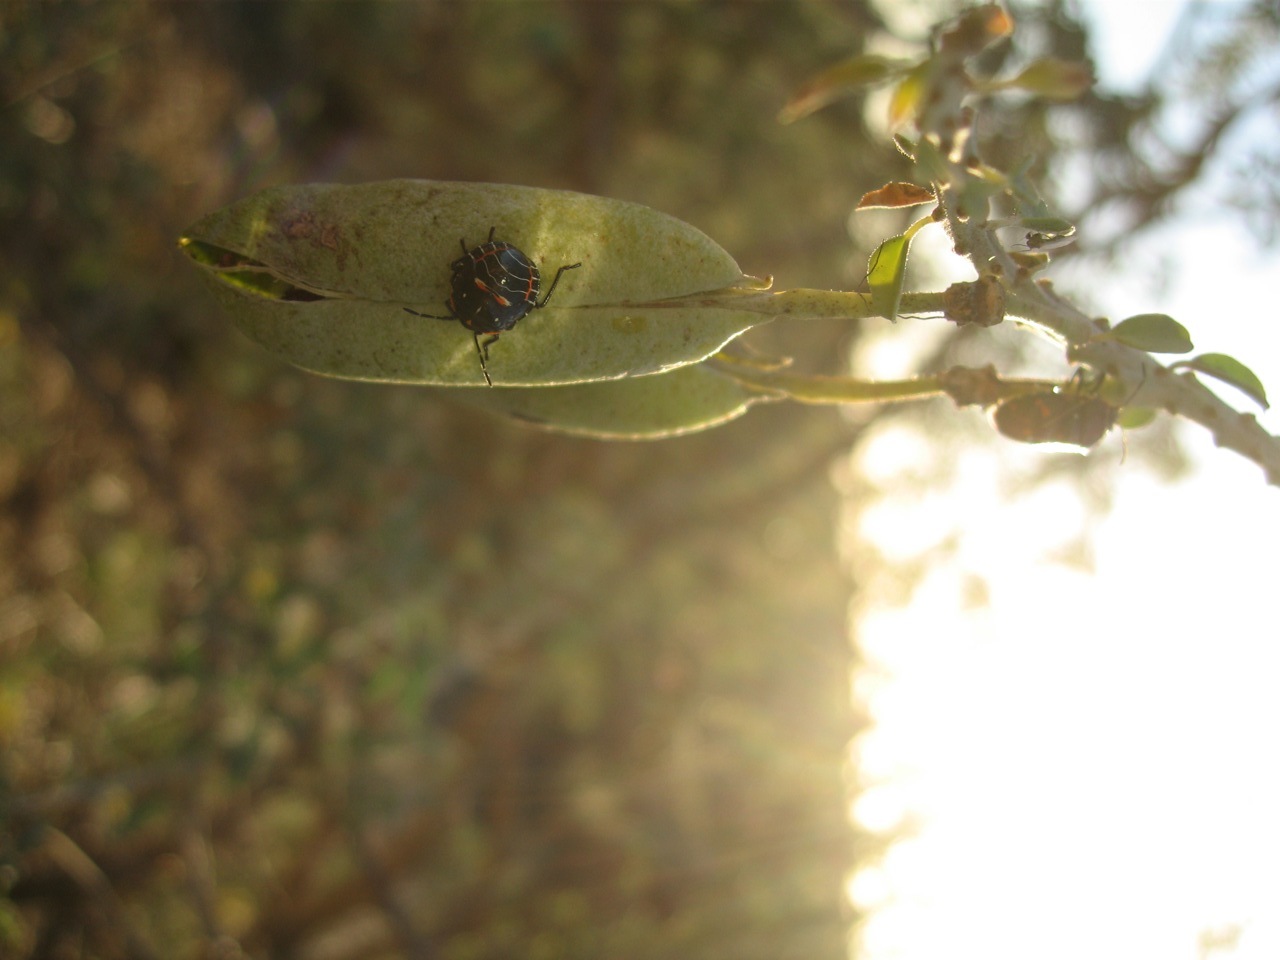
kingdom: Animalia
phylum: Arthropoda
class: Insecta
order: Hemiptera
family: Pentatomidae
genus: Murgantia
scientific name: Murgantia histrionica
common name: Harlequin bug
